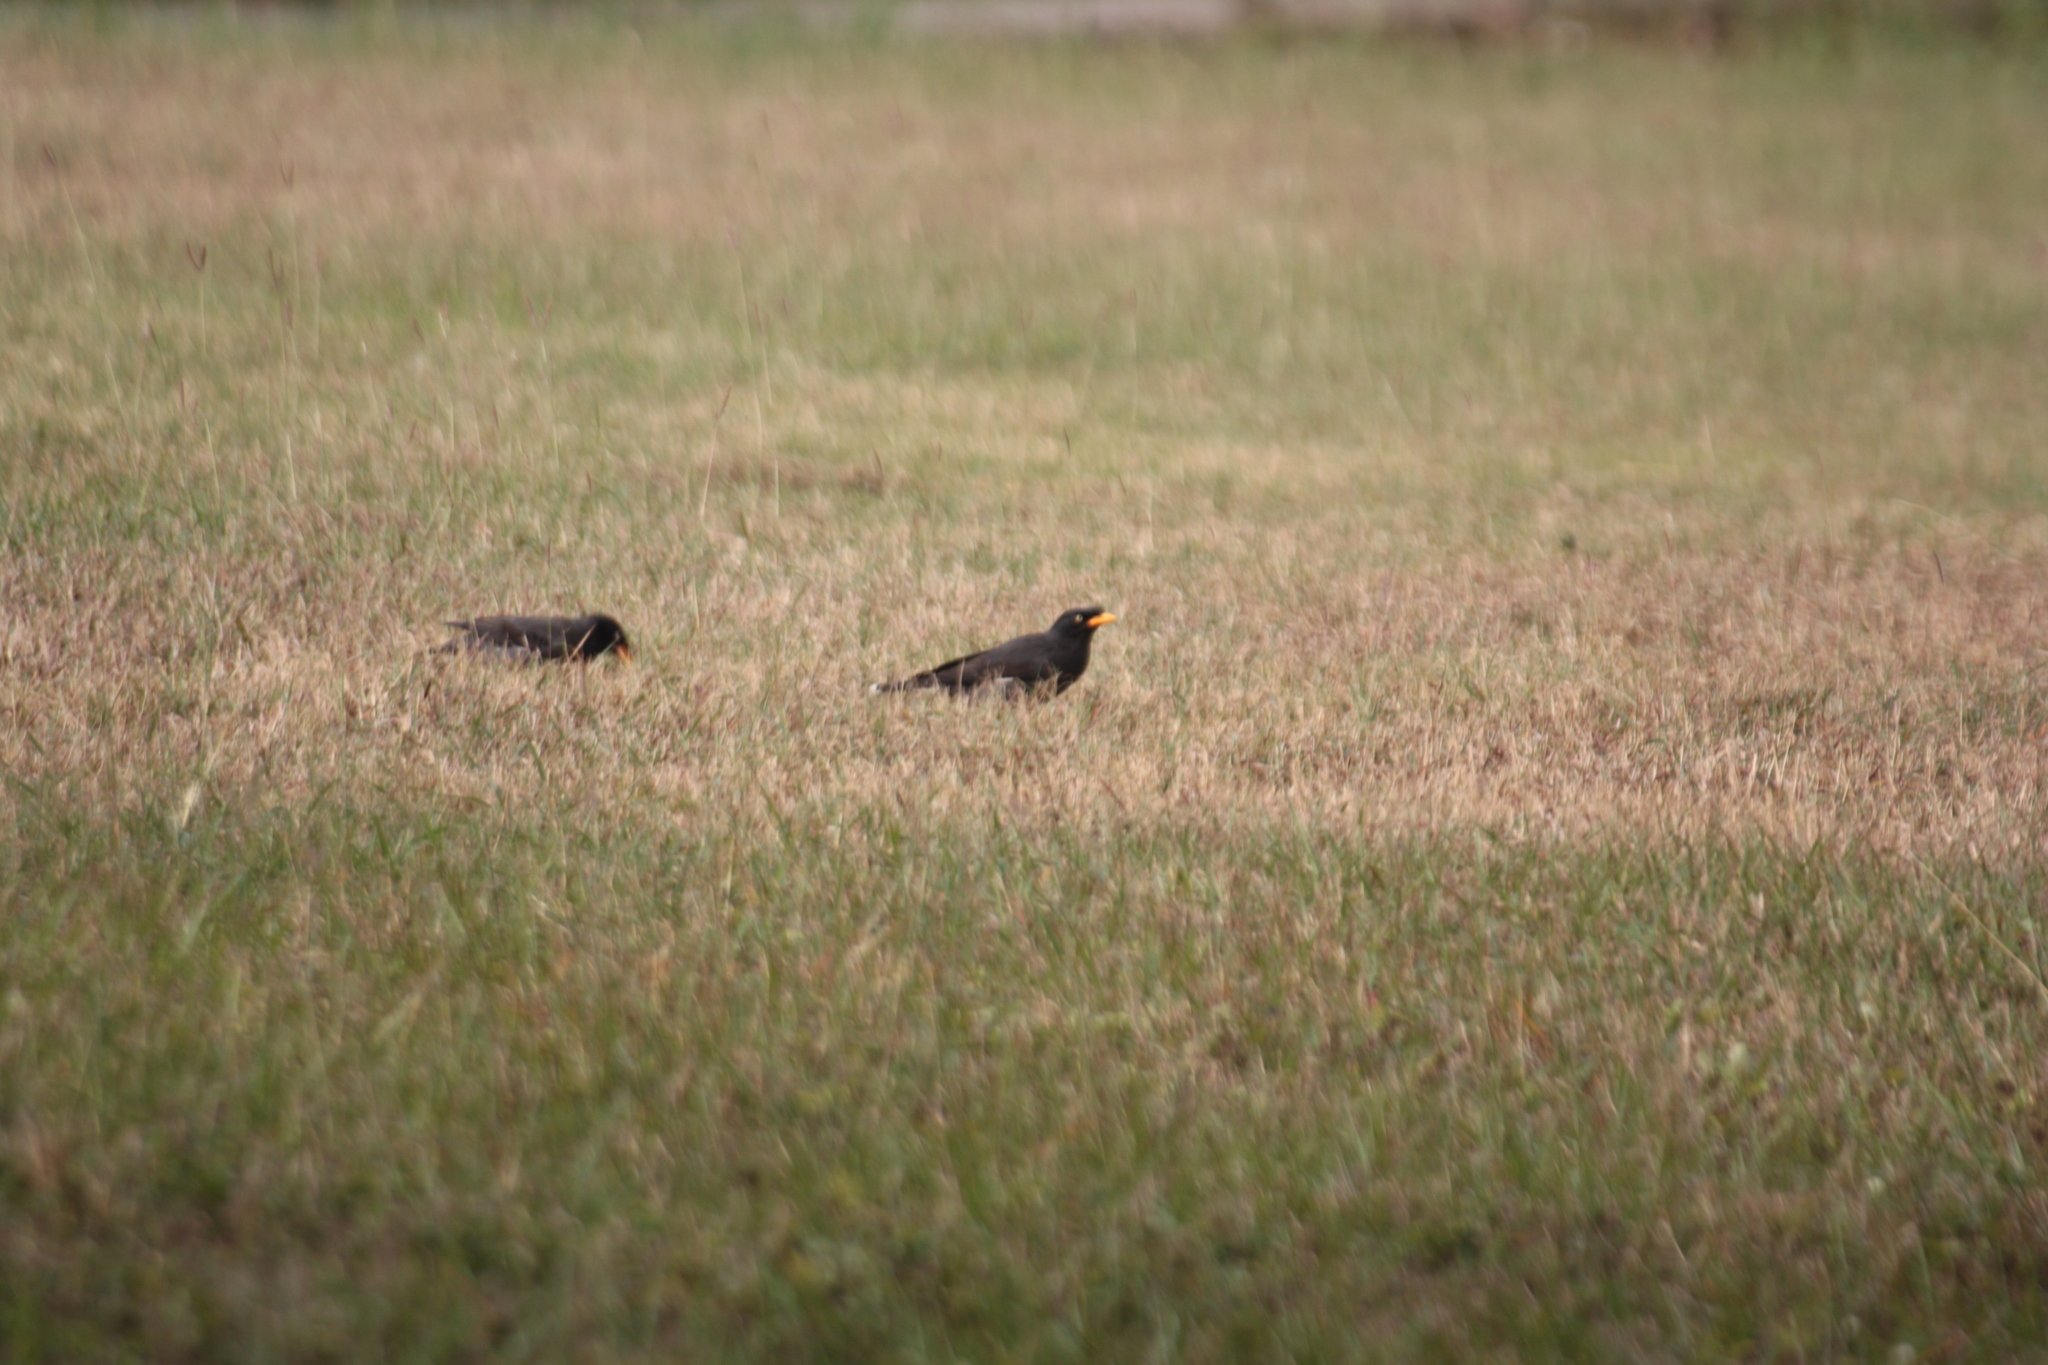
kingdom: Animalia
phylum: Chordata
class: Aves
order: Passeriformes
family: Sturnidae
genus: Acridotheres
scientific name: Acridotheres javanicus
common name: Javan myna
